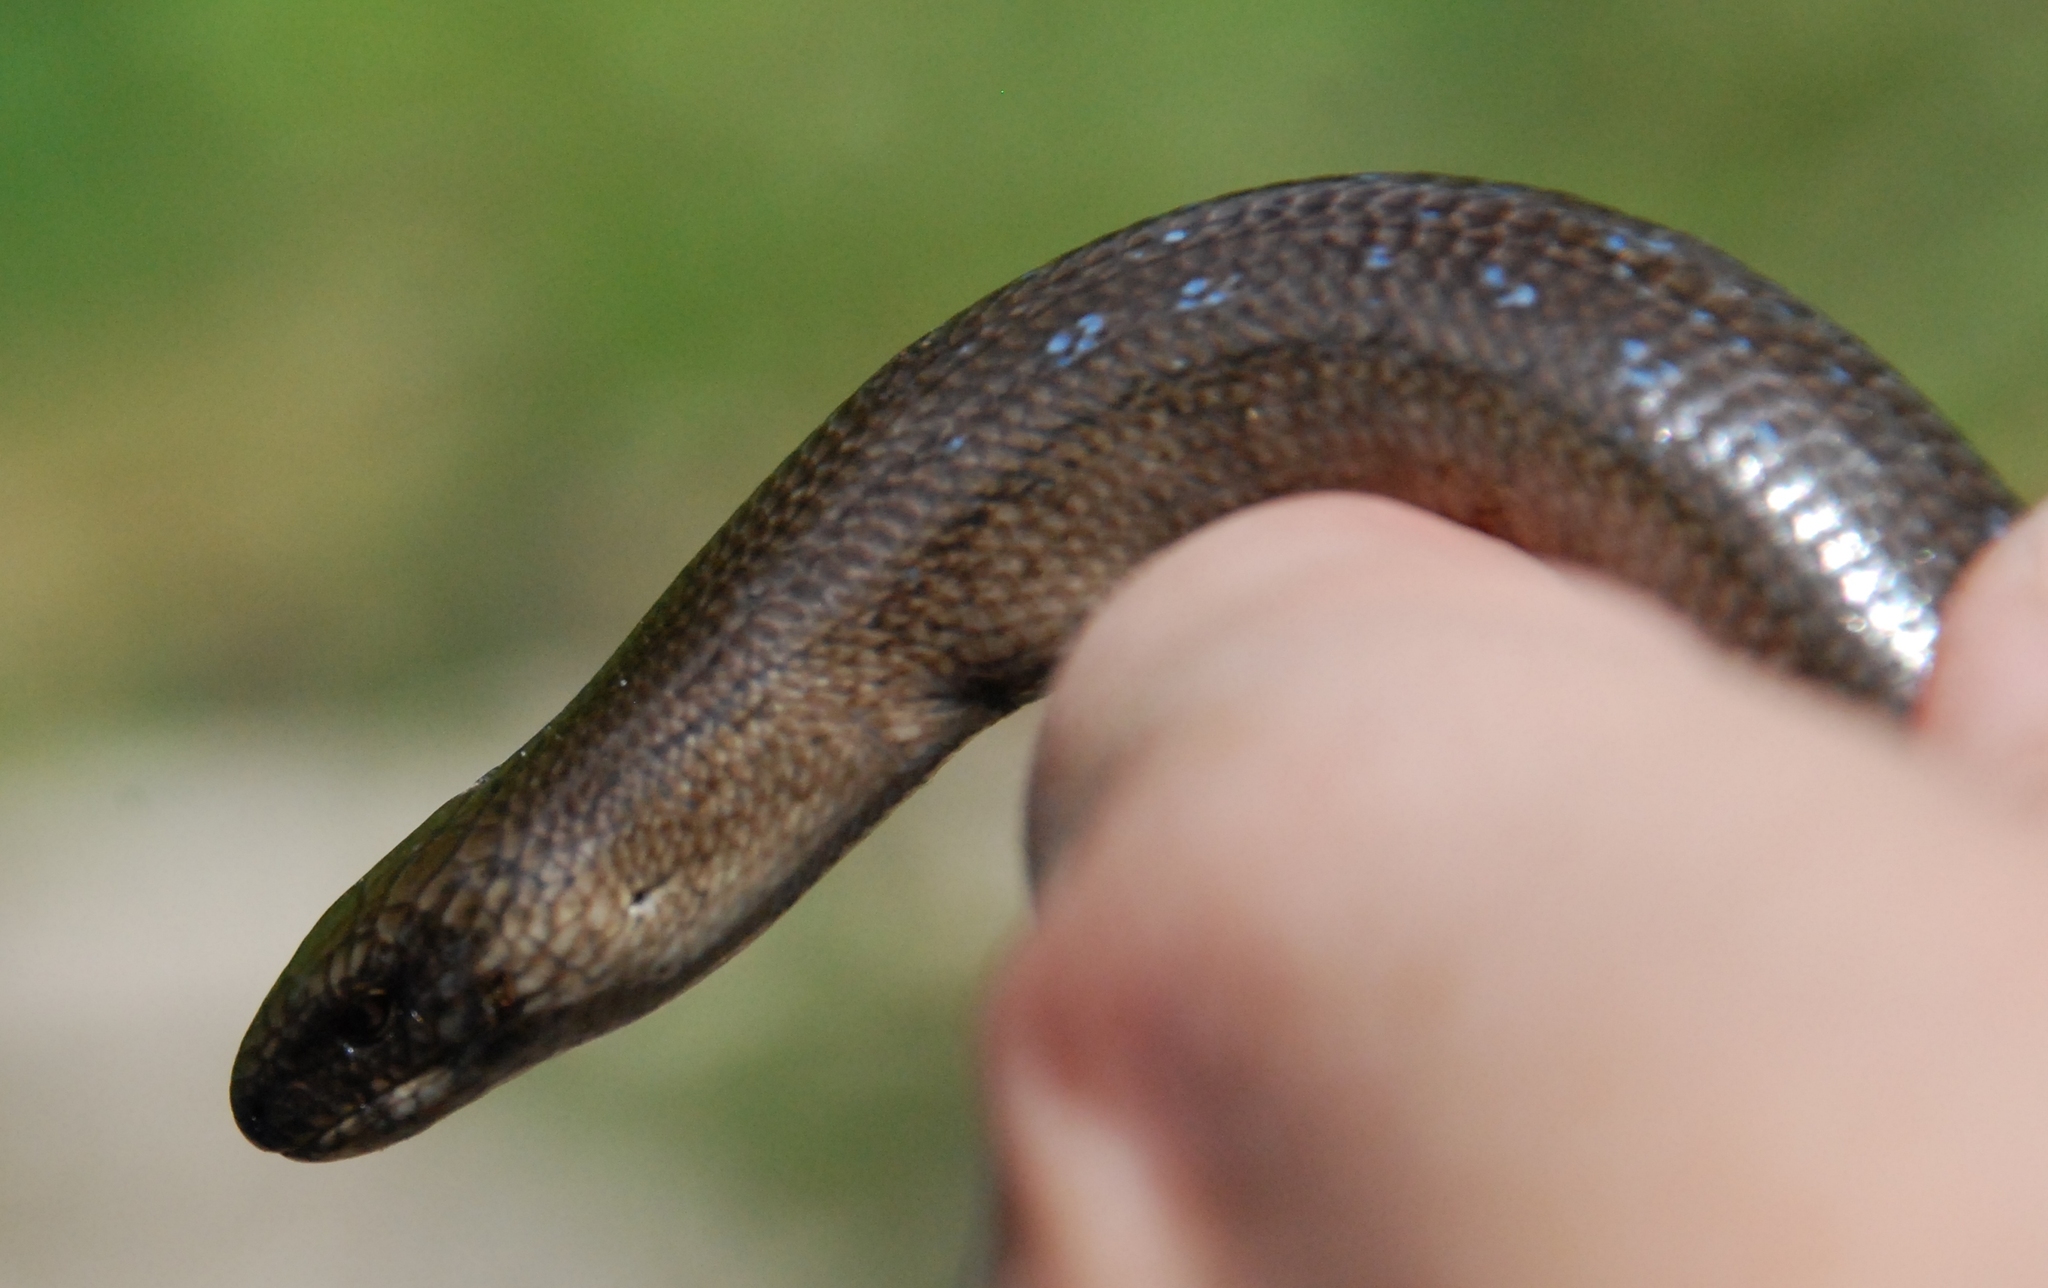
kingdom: Animalia
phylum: Chordata
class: Squamata
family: Anguidae
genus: Anguis
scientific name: Anguis colchica
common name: Slow worm
